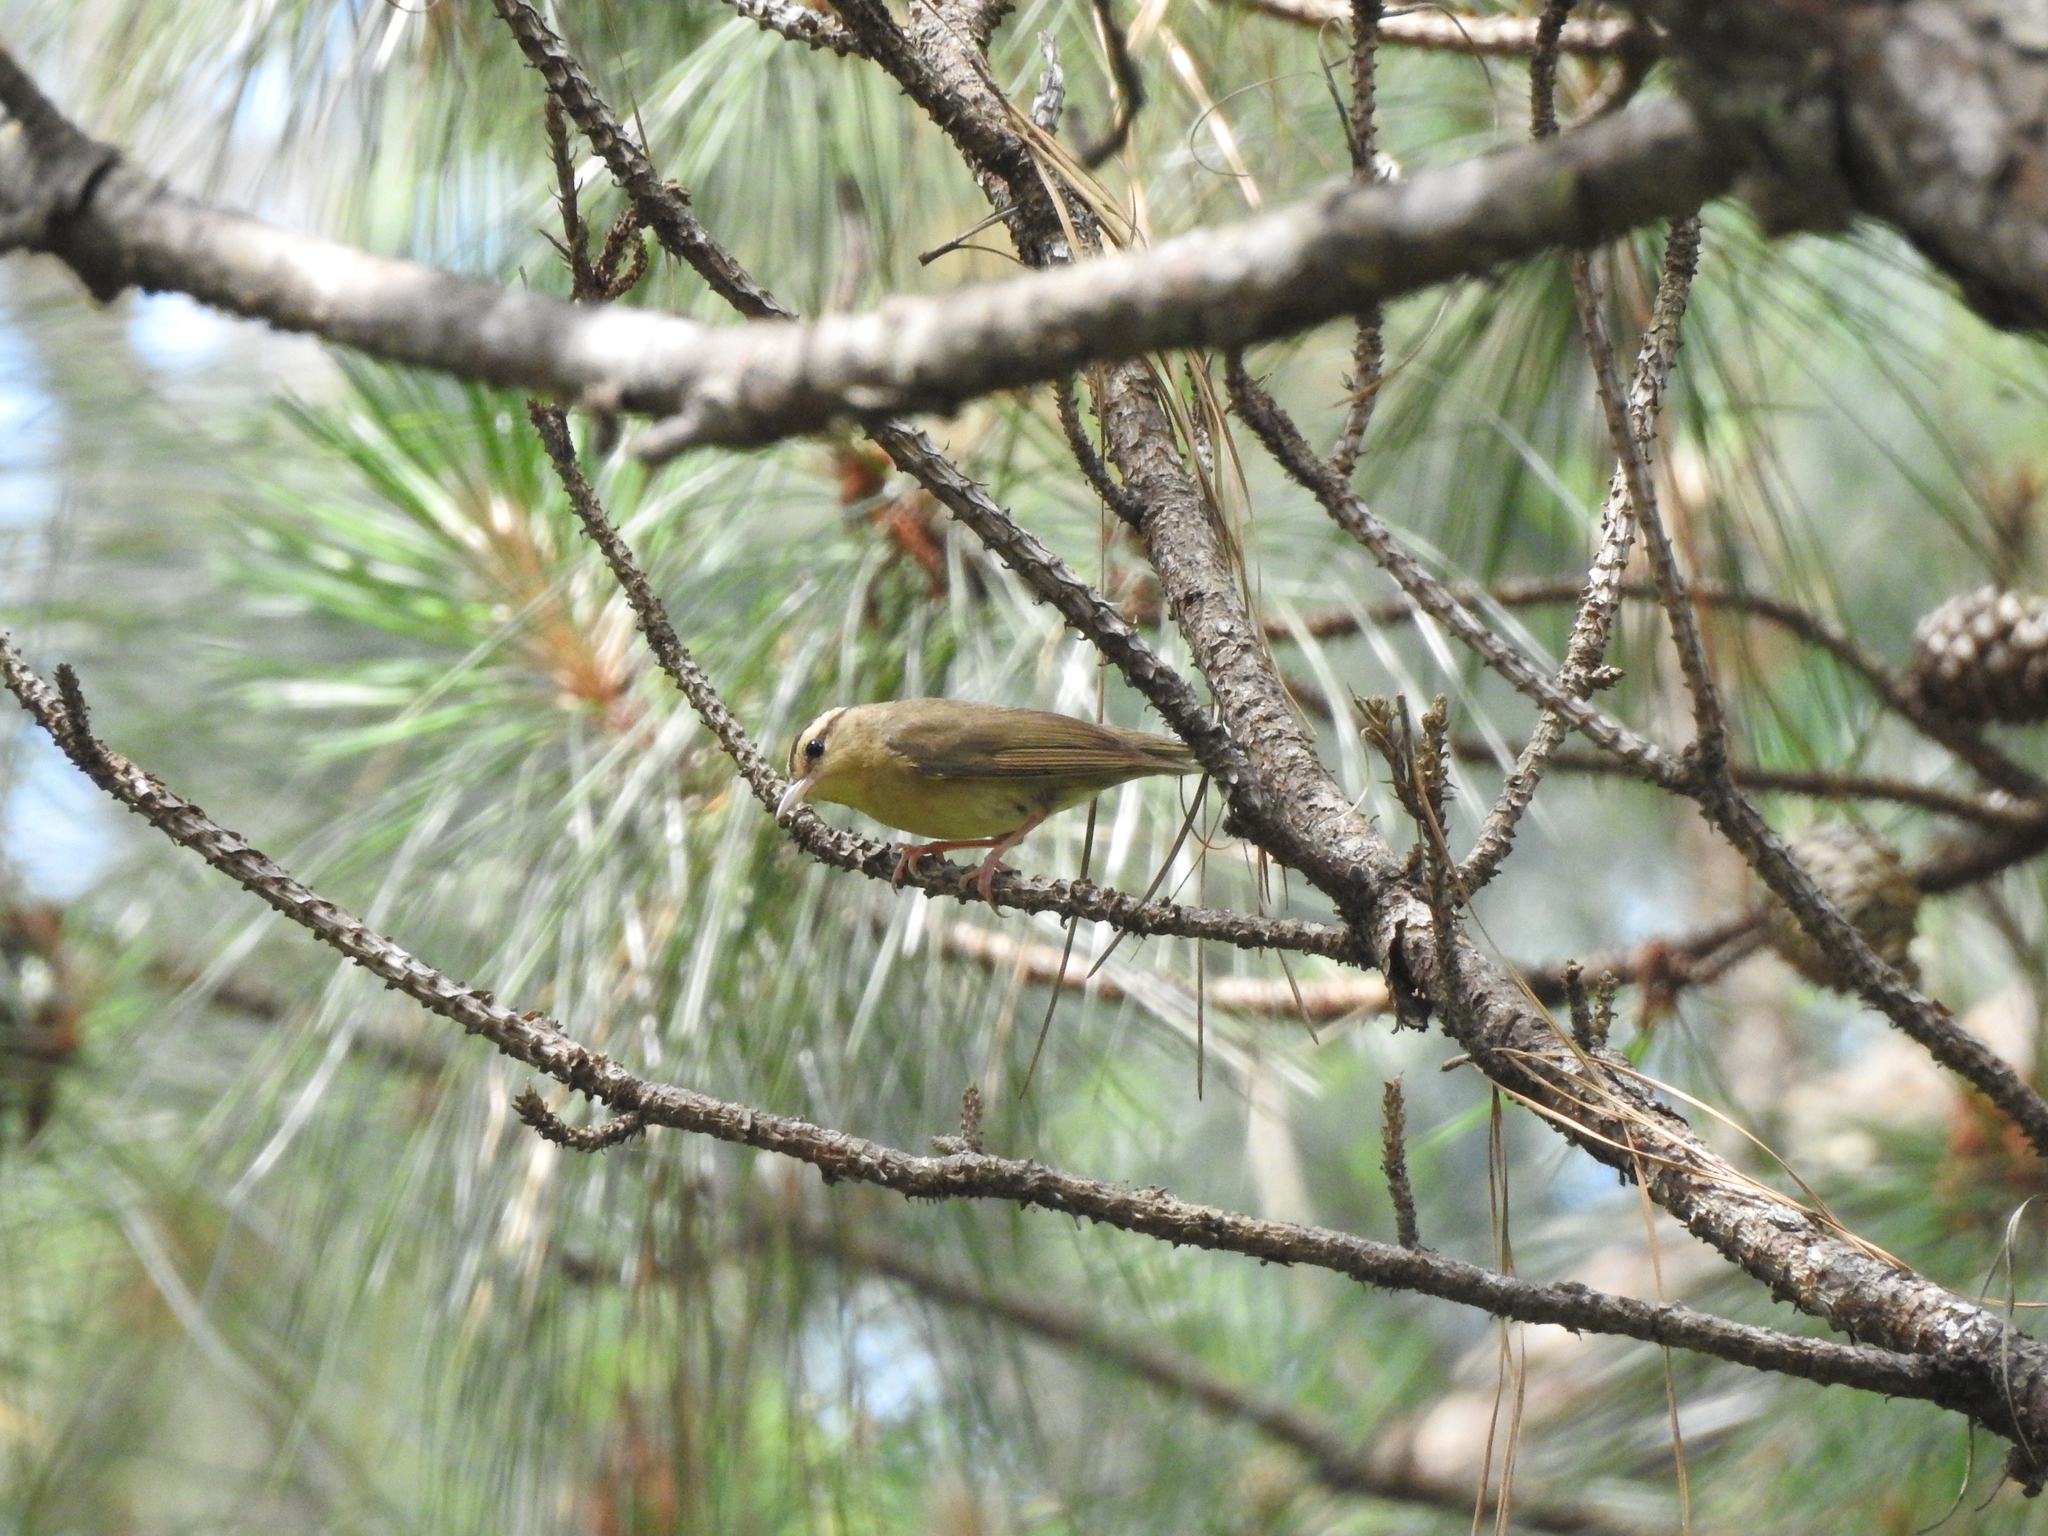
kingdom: Animalia
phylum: Chordata
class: Aves
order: Passeriformes
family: Parulidae
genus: Helmitheros
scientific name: Helmitheros vermivorum
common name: Worm-eating warbler
